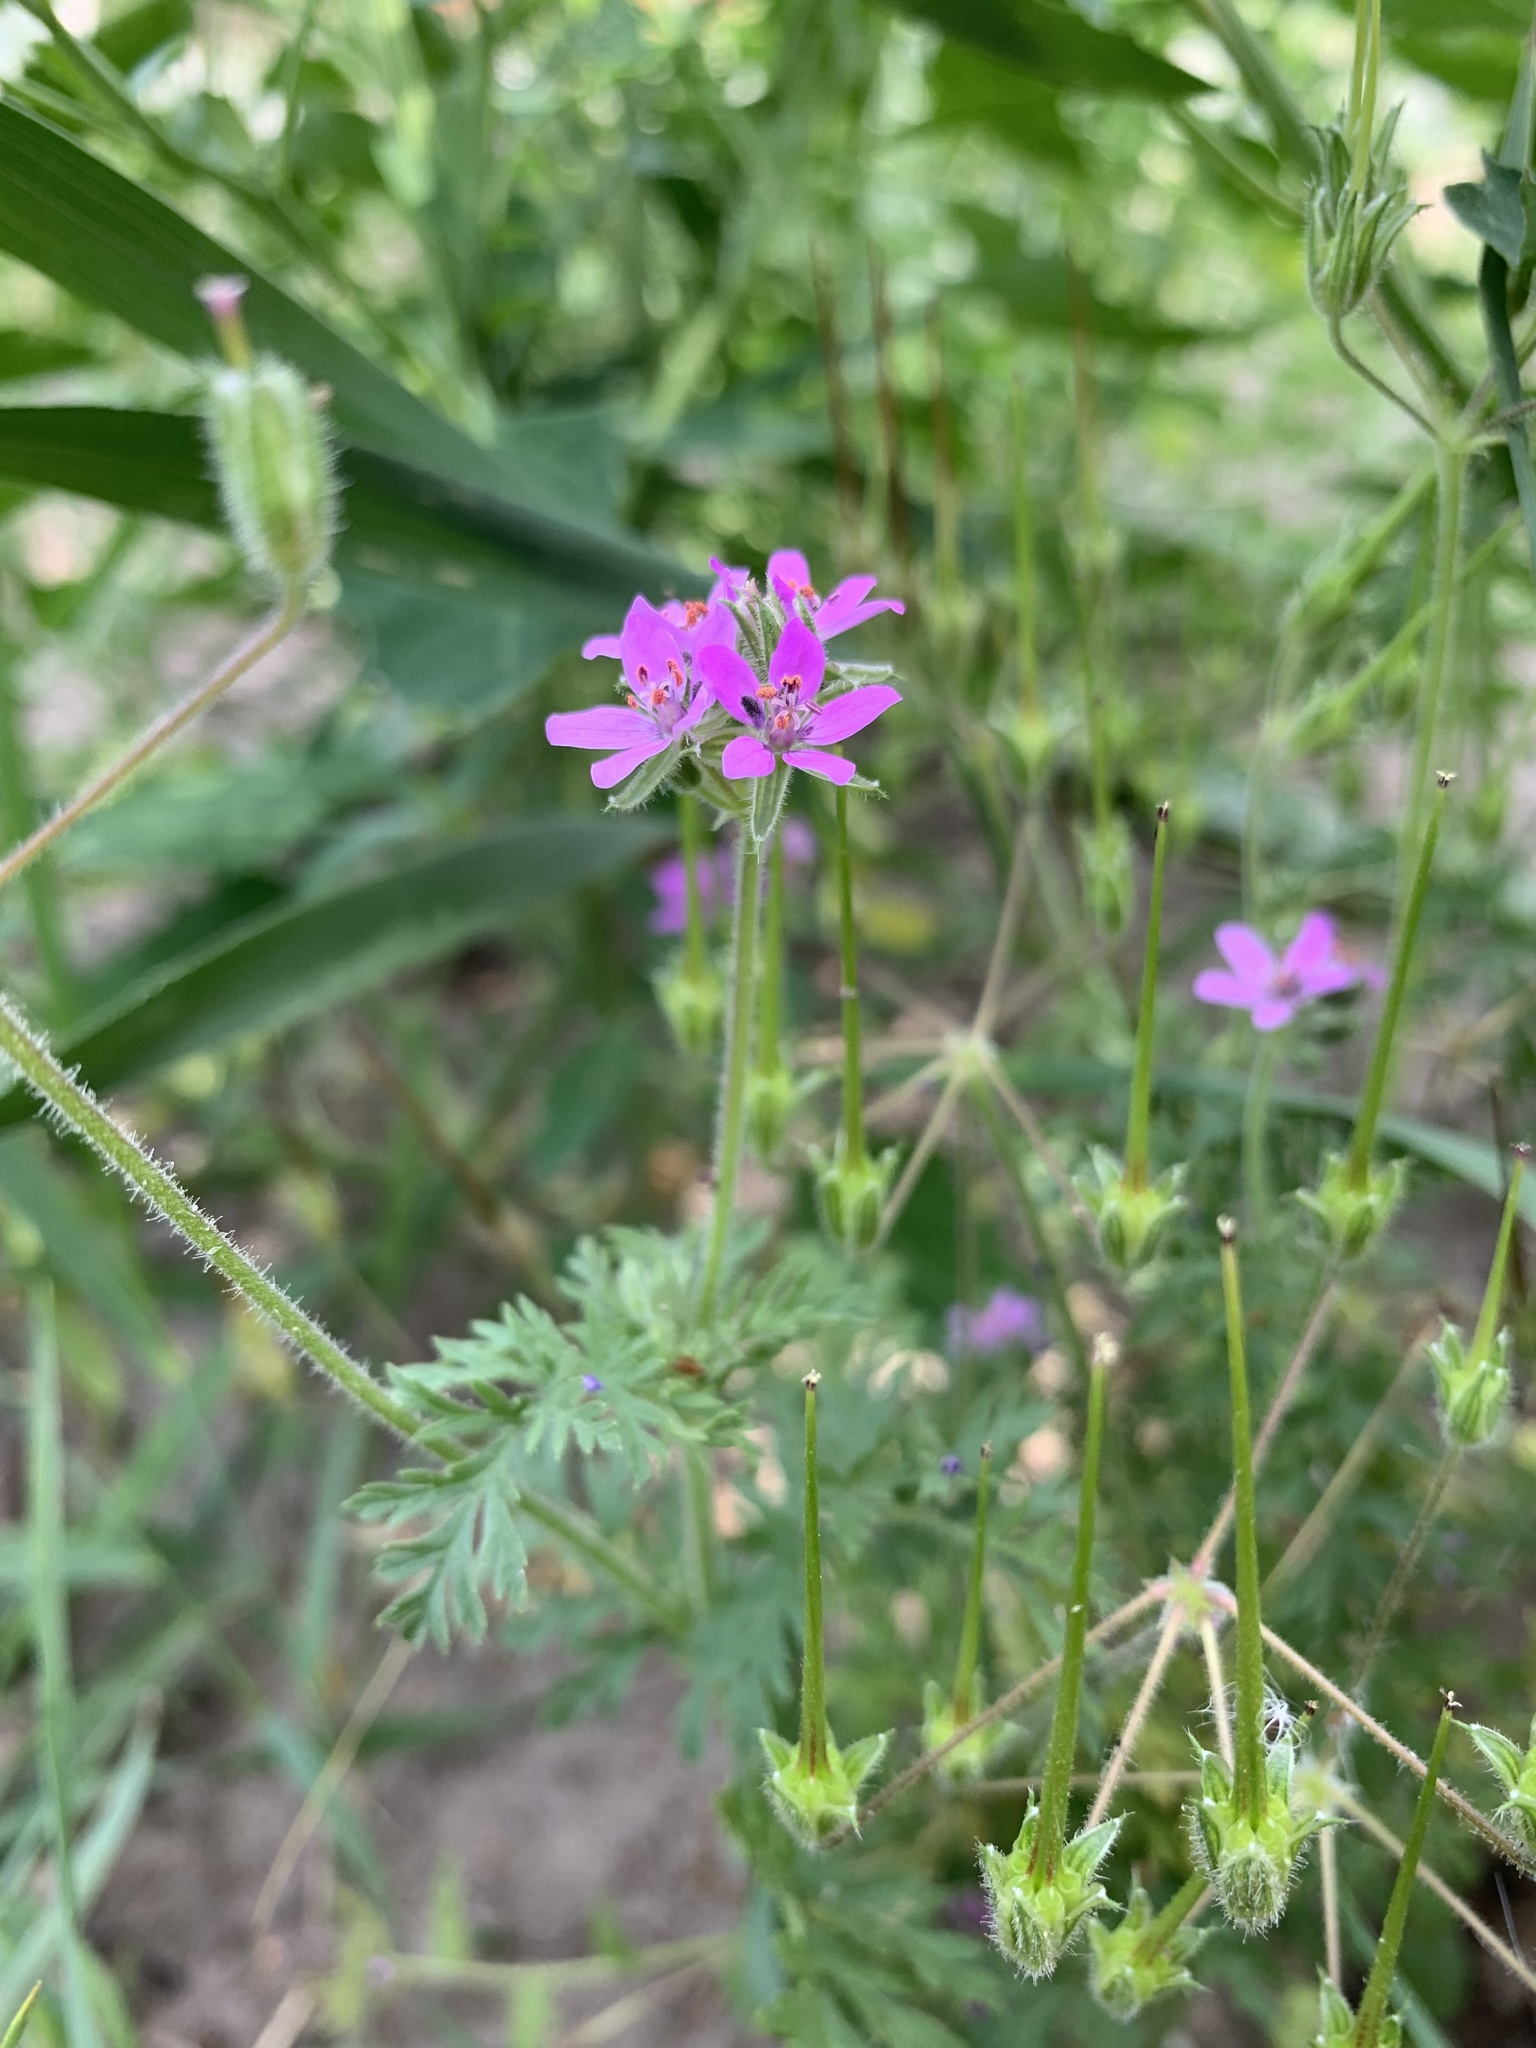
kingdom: Plantae
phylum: Tracheophyta
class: Magnoliopsida
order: Geraniales
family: Geraniaceae
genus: Erodium
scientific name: Erodium cicutarium
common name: Common stork's-bill
